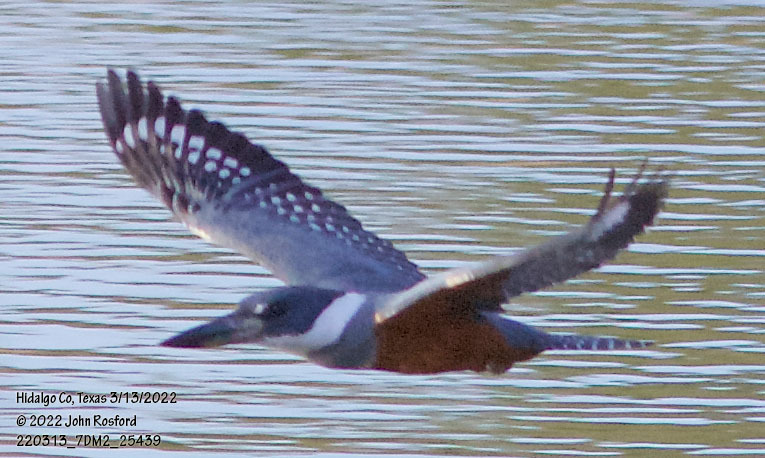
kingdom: Animalia
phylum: Chordata
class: Aves
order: Coraciiformes
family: Alcedinidae
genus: Megaceryle
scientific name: Megaceryle torquata
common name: Ringed kingfisher
